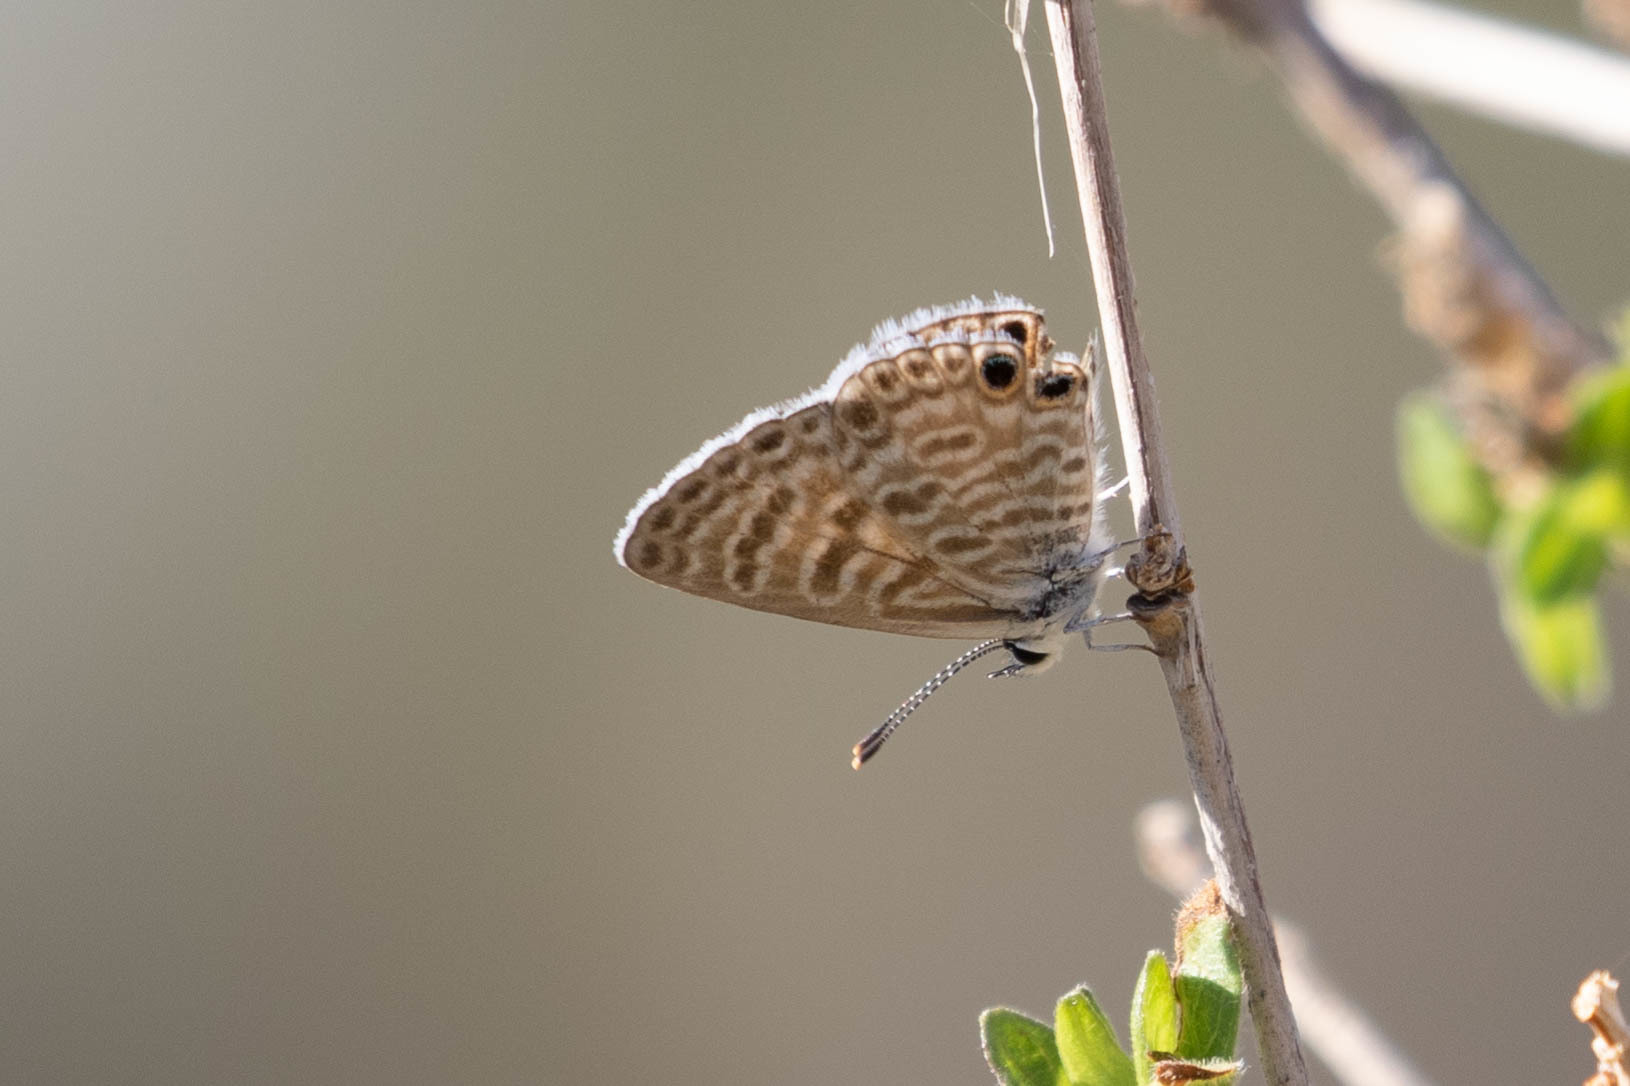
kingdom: Animalia
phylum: Arthropoda
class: Insecta
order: Lepidoptera
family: Lycaenidae
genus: Leptotes
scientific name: Leptotes marina
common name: Marine blue
